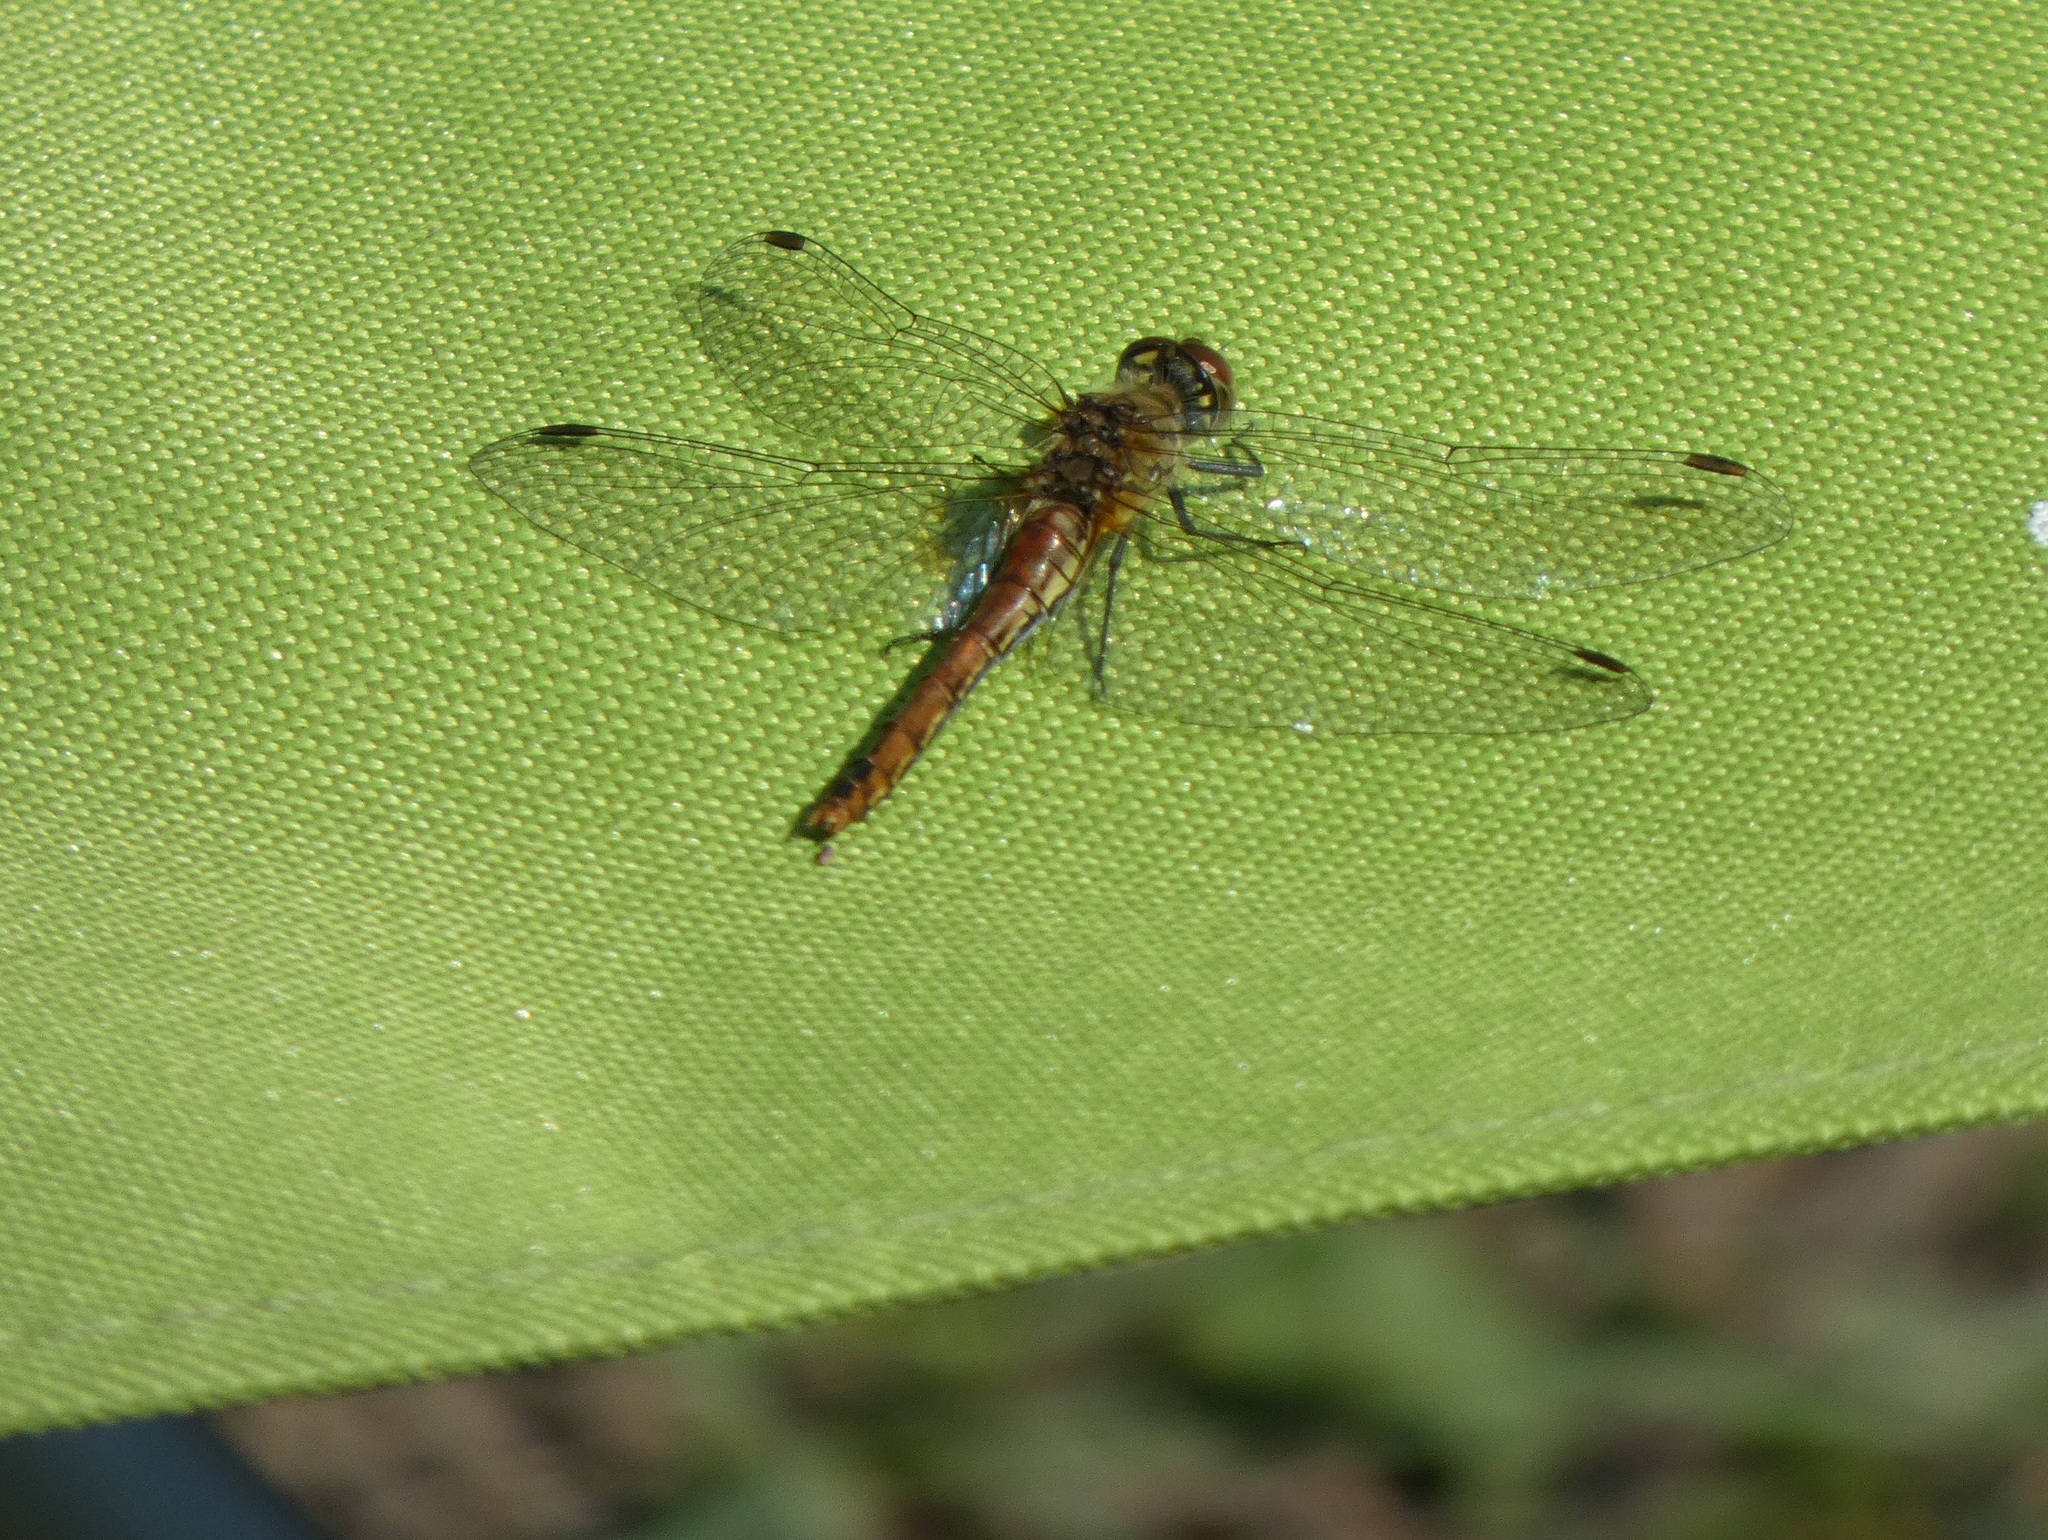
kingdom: Animalia
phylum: Arthropoda
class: Insecta
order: Odonata
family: Libellulidae
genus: Sympetrum
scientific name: Sympetrum sanguineum
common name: Ruddy darter
